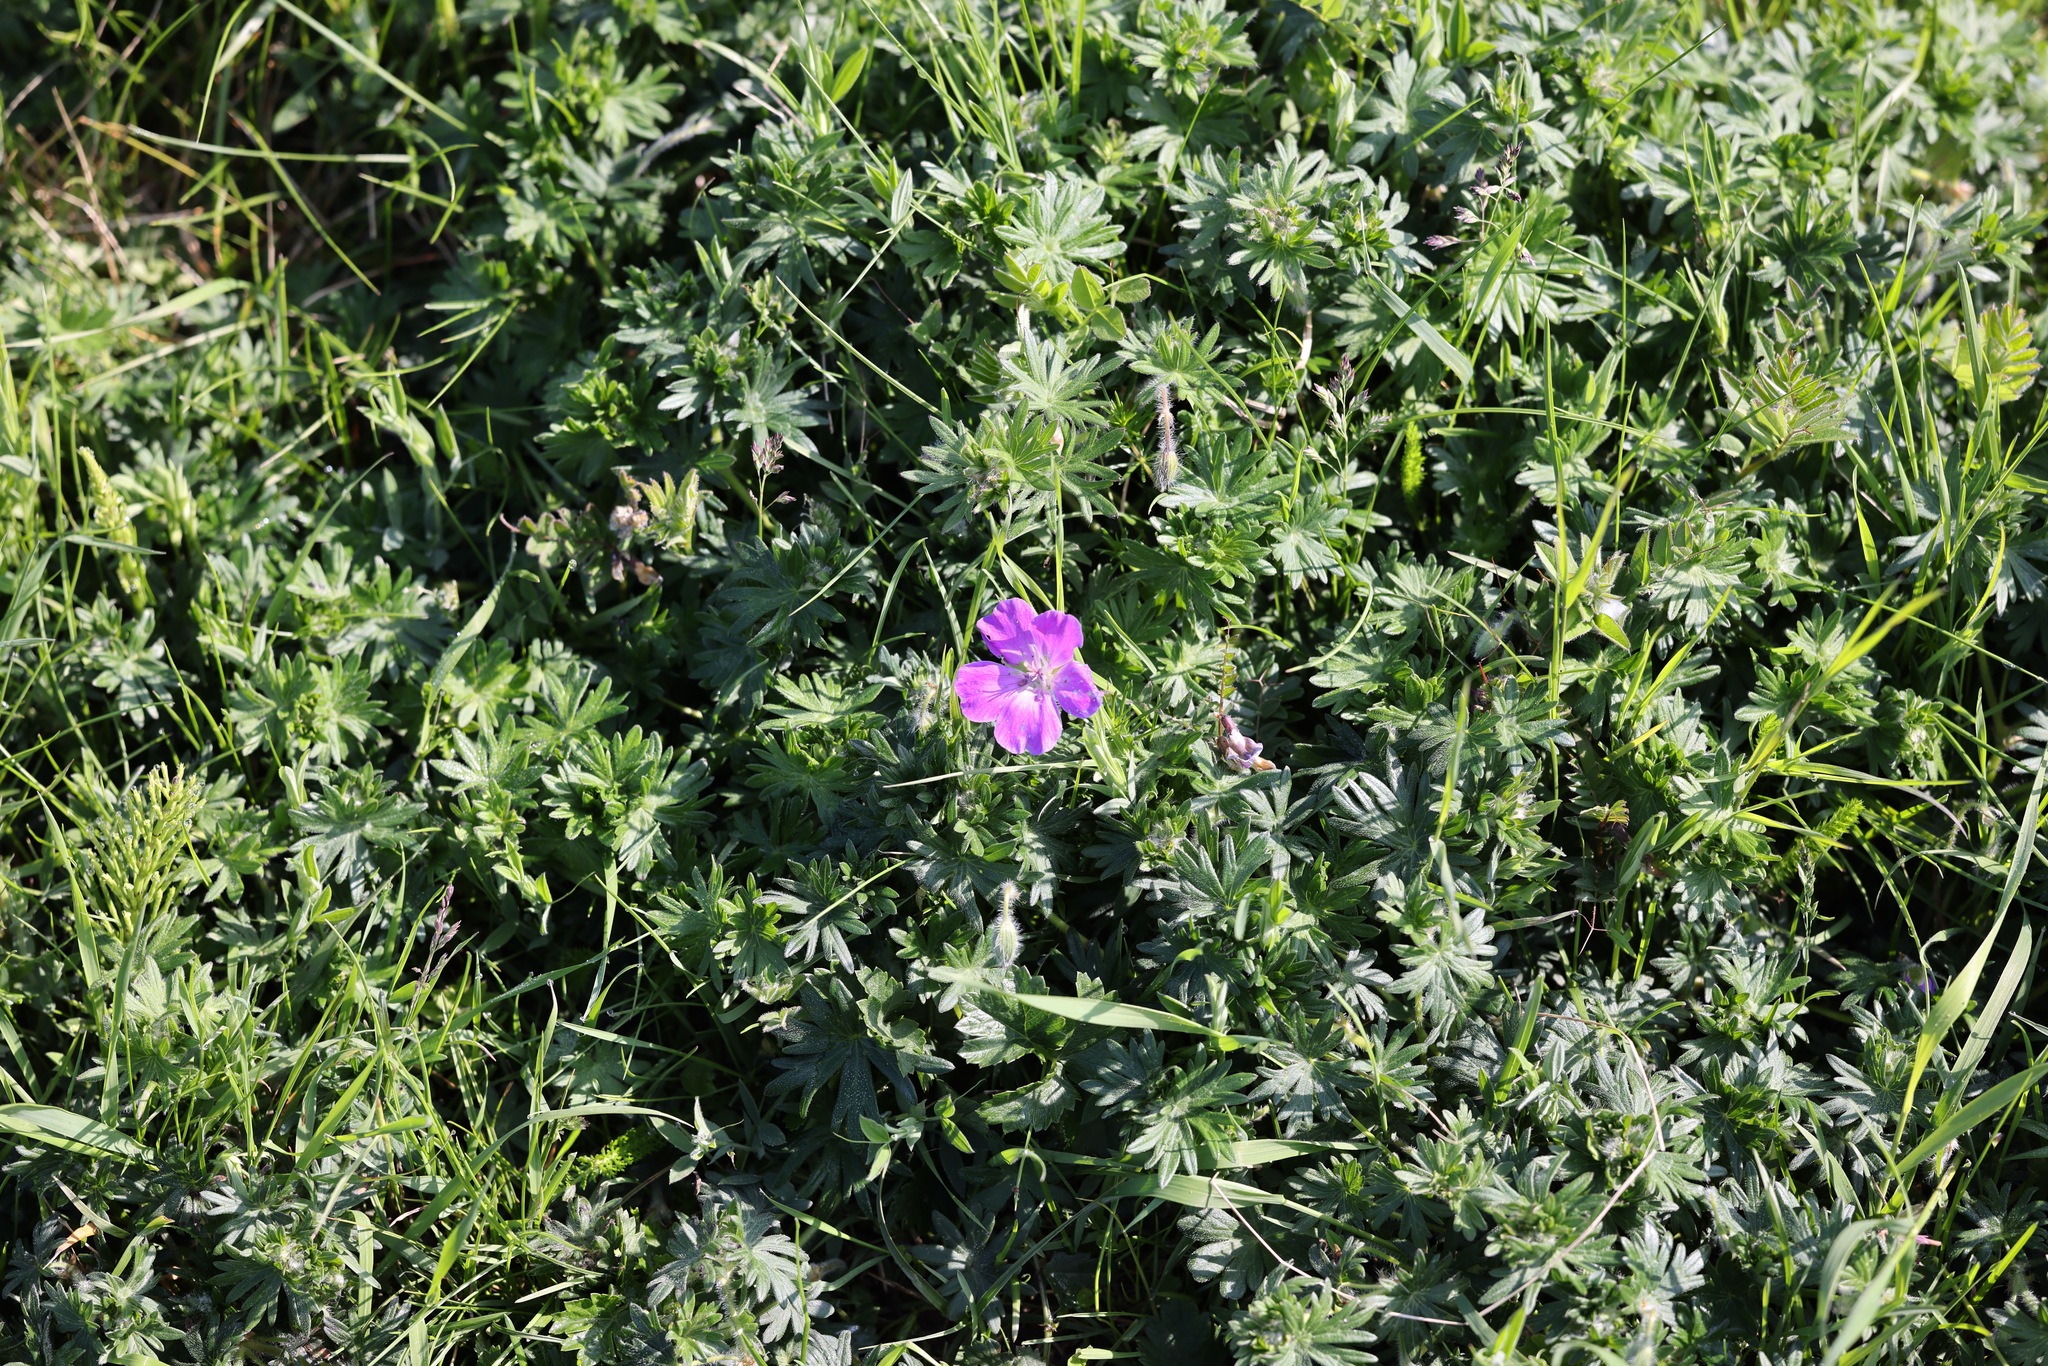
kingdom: Plantae
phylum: Tracheophyta
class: Magnoliopsida
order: Geraniales
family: Geraniaceae
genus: Geranium
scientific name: Geranium sanguineum
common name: Bloody crane's-bill
